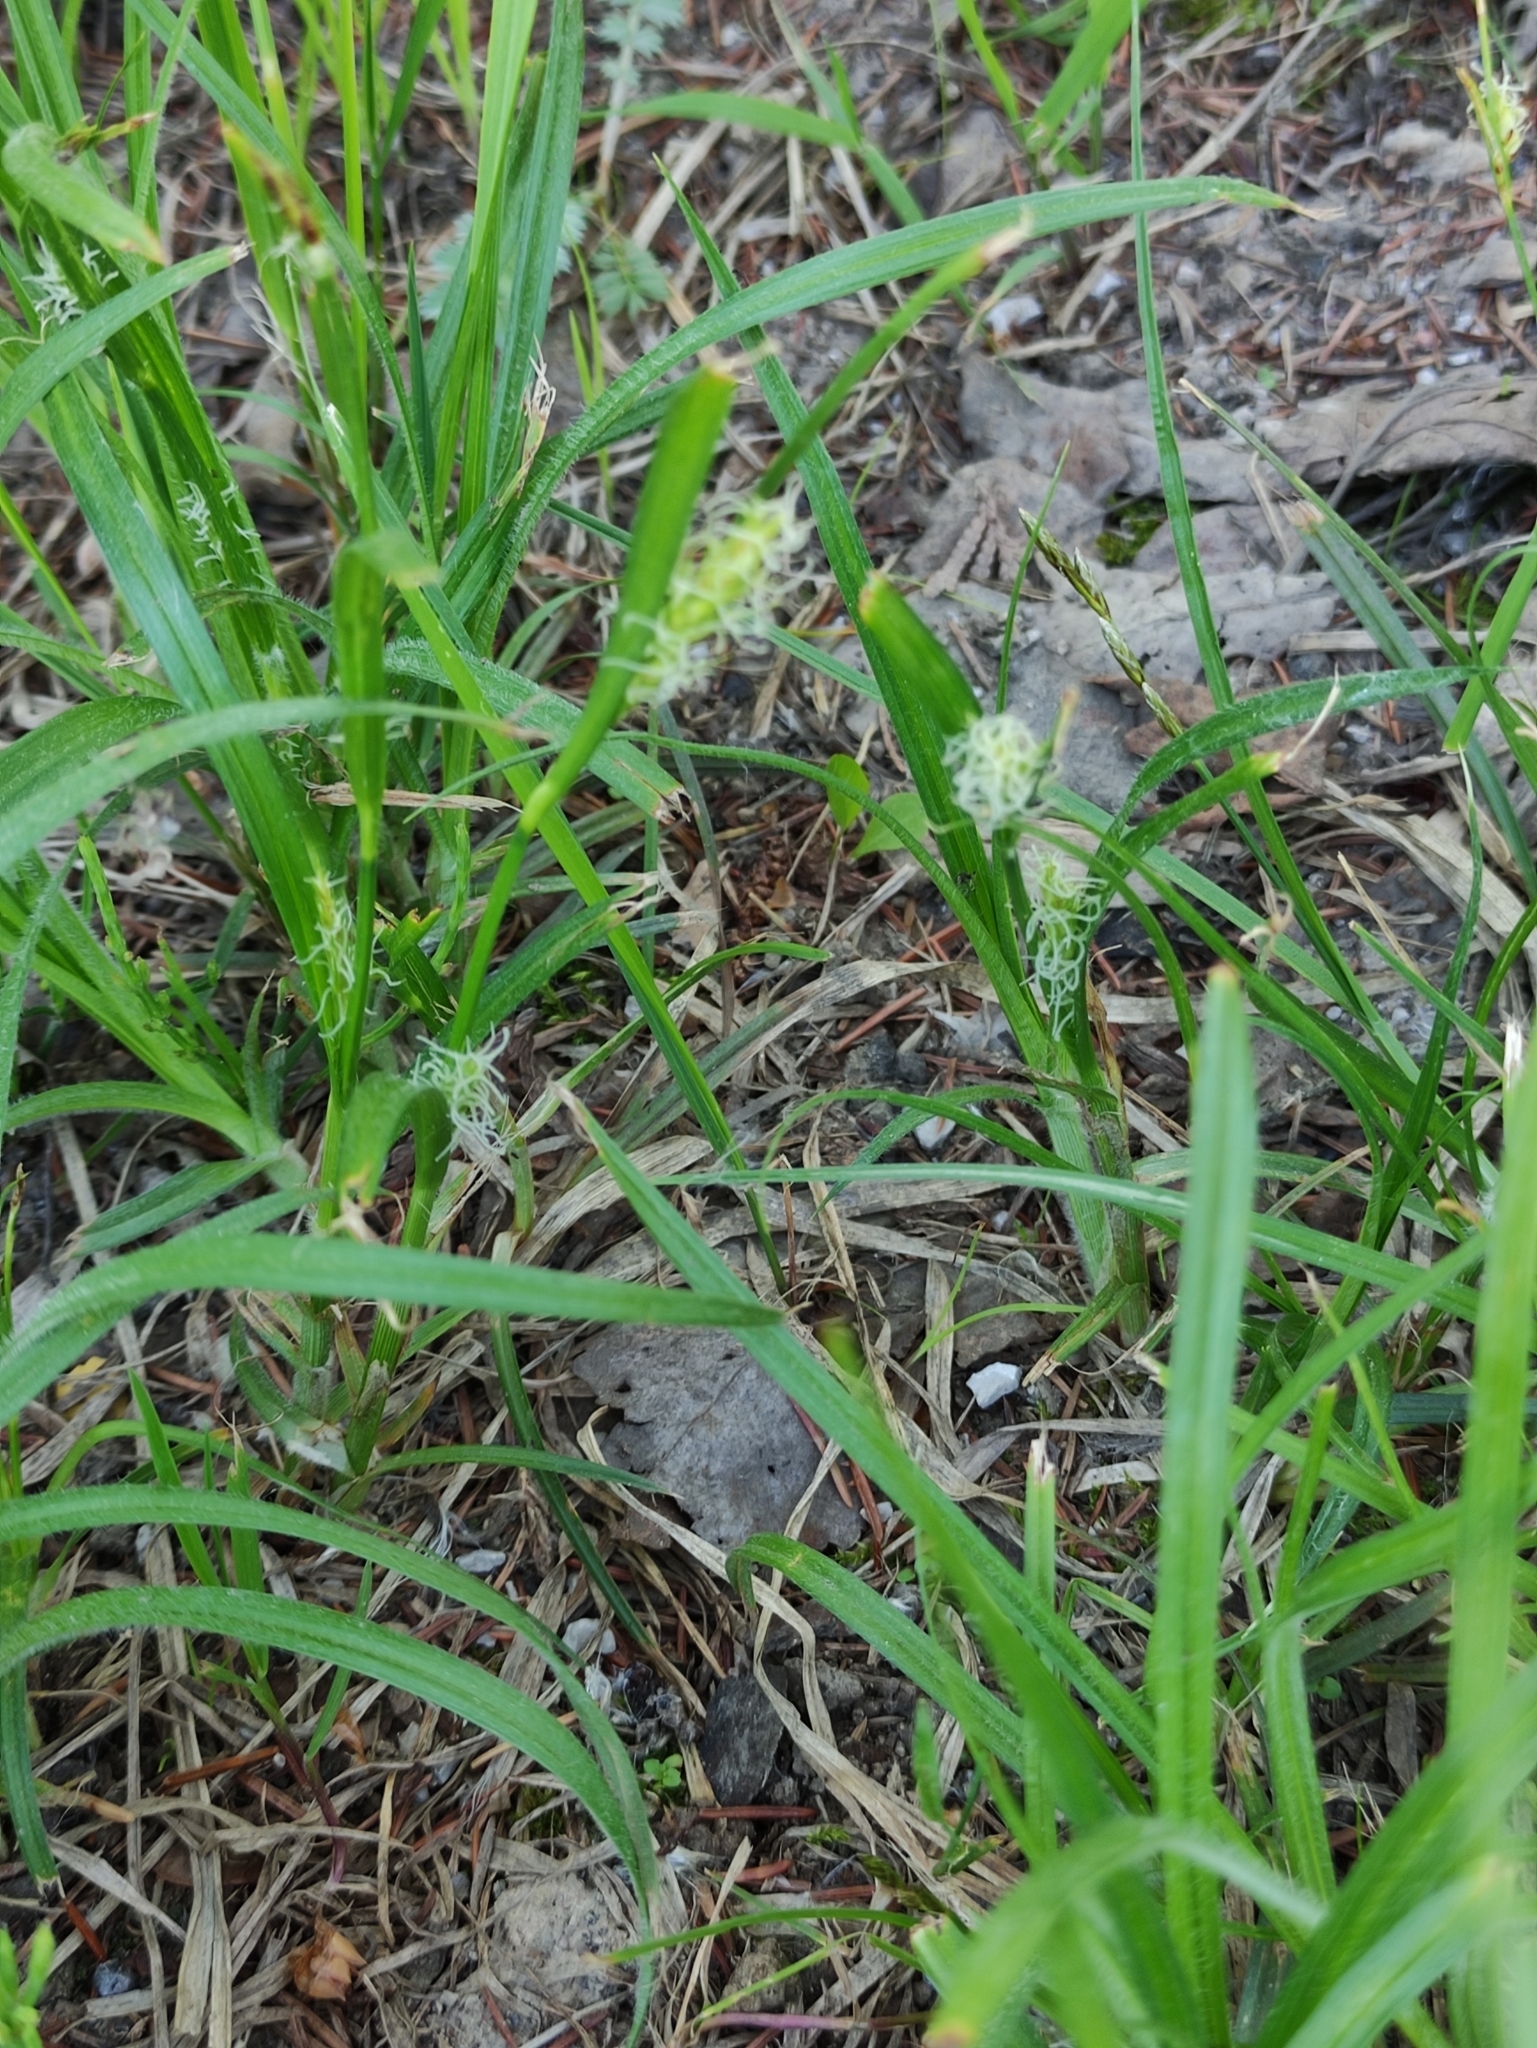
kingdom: Plantae
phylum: Tracheophyta
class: Liliopsida
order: Poales
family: Cyperaceae
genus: Carex
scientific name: Carex hirta
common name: Hairy sedge
